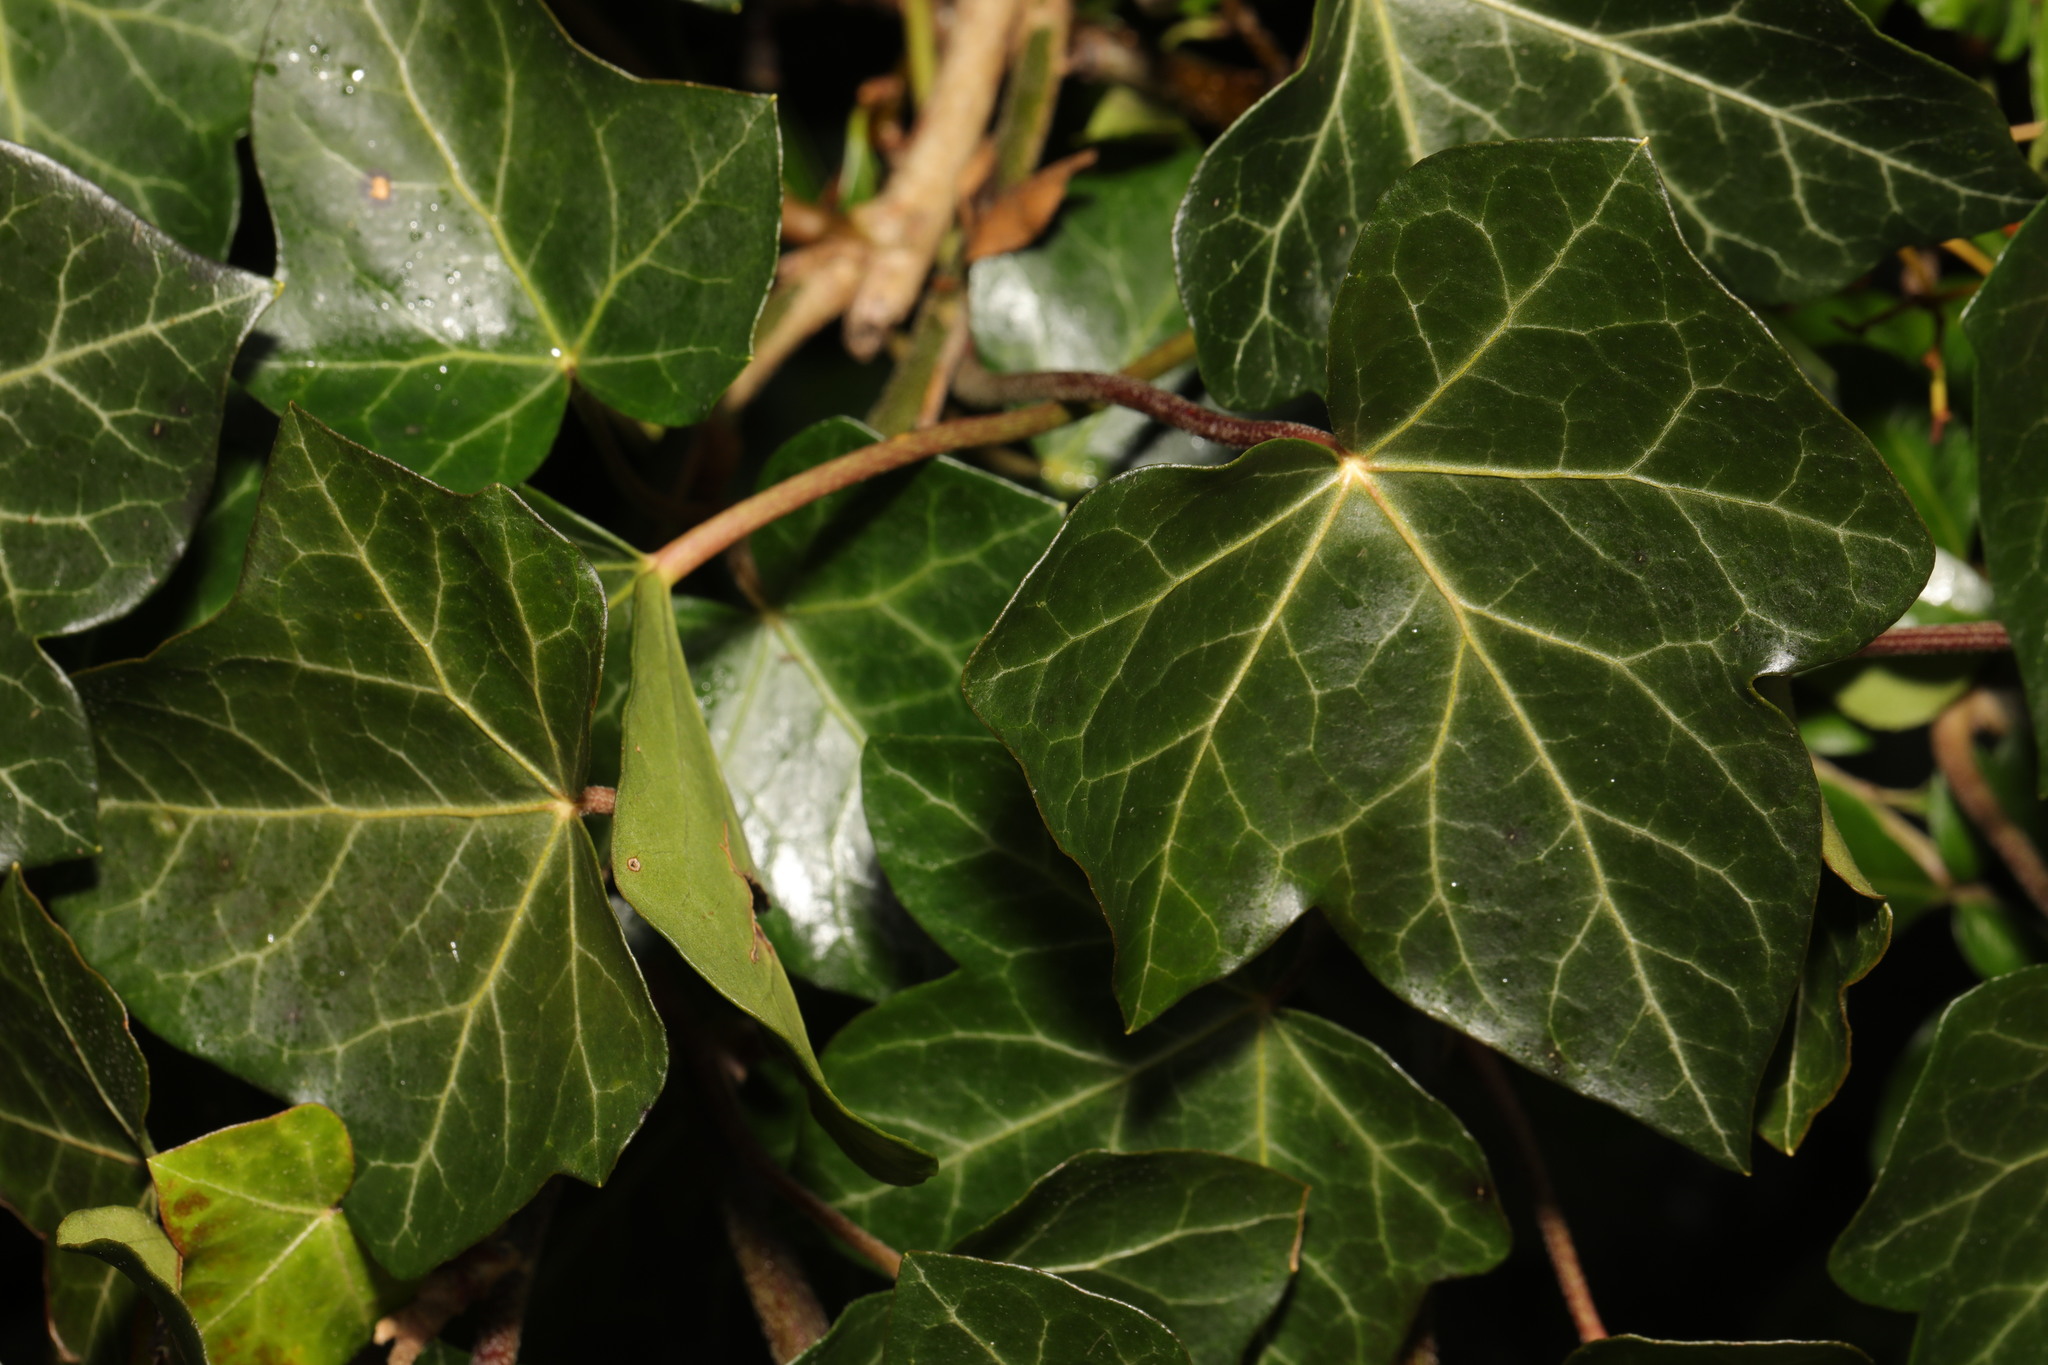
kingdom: Plantae
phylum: Tracheophyta
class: Magnoliopsida
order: Apiales
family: Araliaceae
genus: Hedera
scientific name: Hedera helix
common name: Ivy
